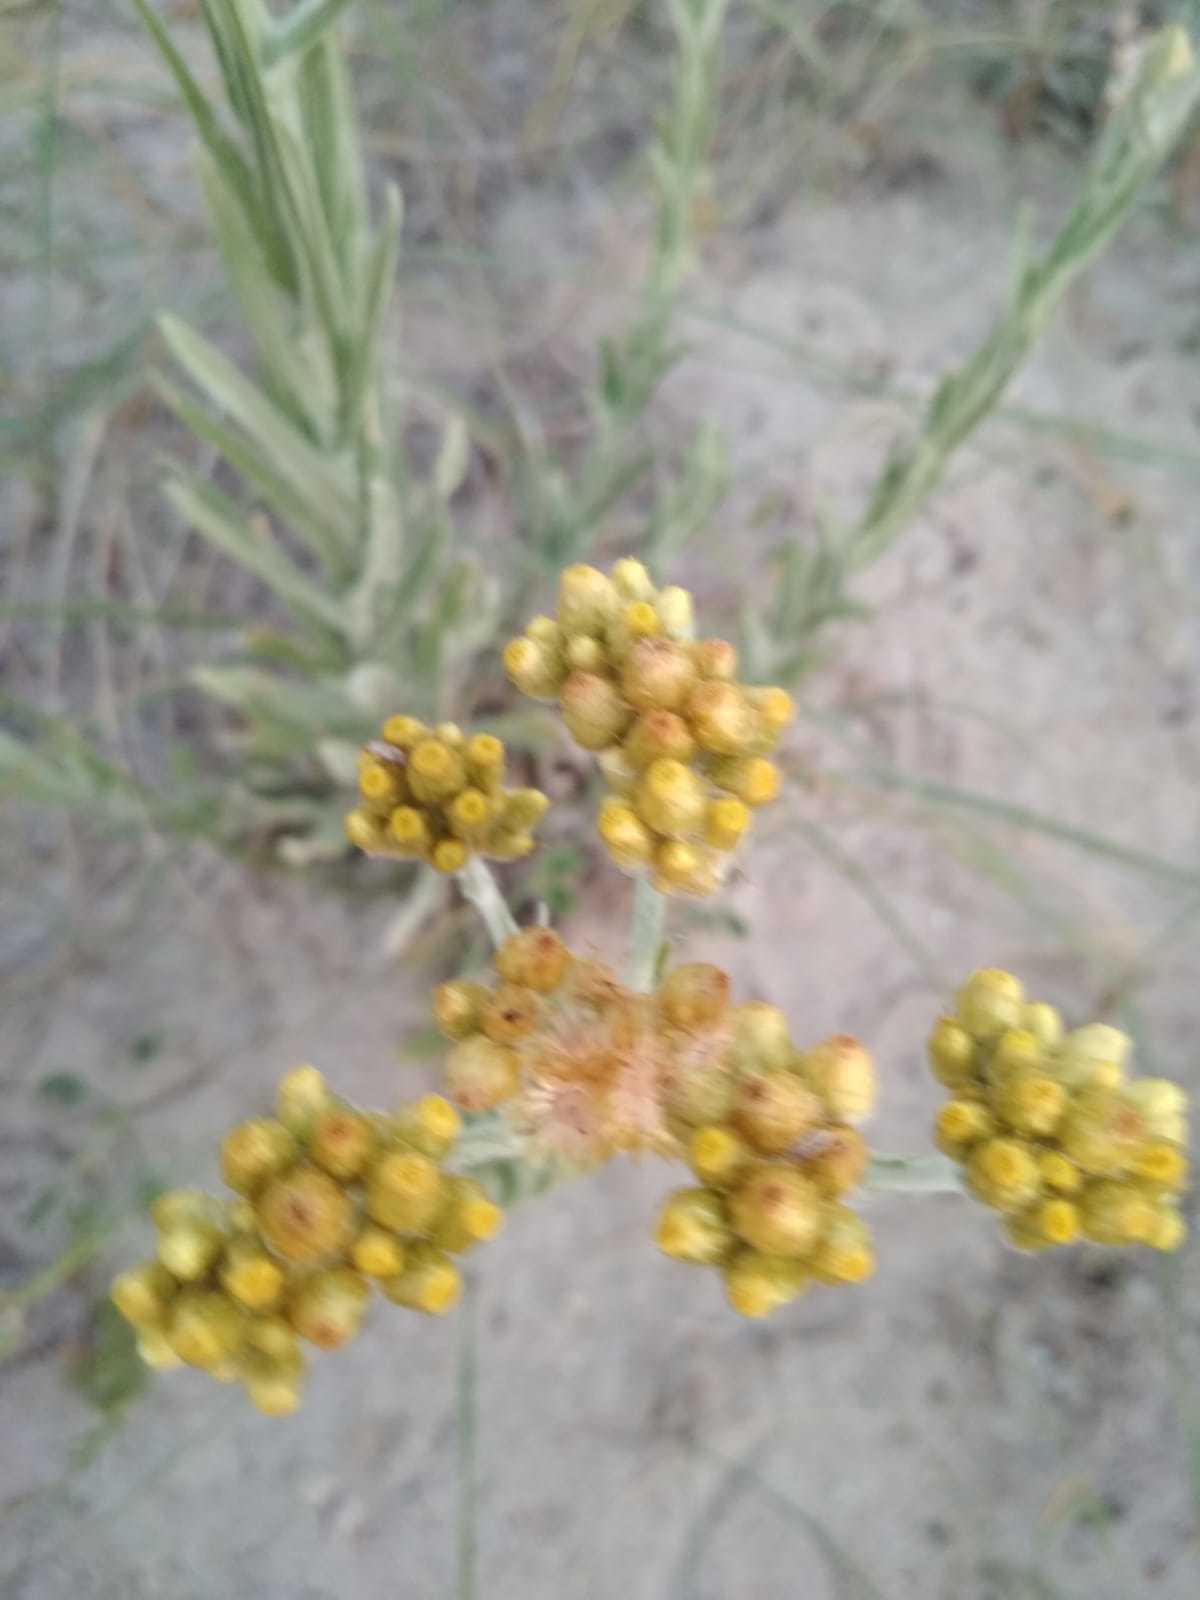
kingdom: Plantae
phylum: Tracheophyta
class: Magnoliopsida
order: Asterales
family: Asteraceae
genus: Pseudognaphalium
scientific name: Pseudognaphalium cheiranthifolium
